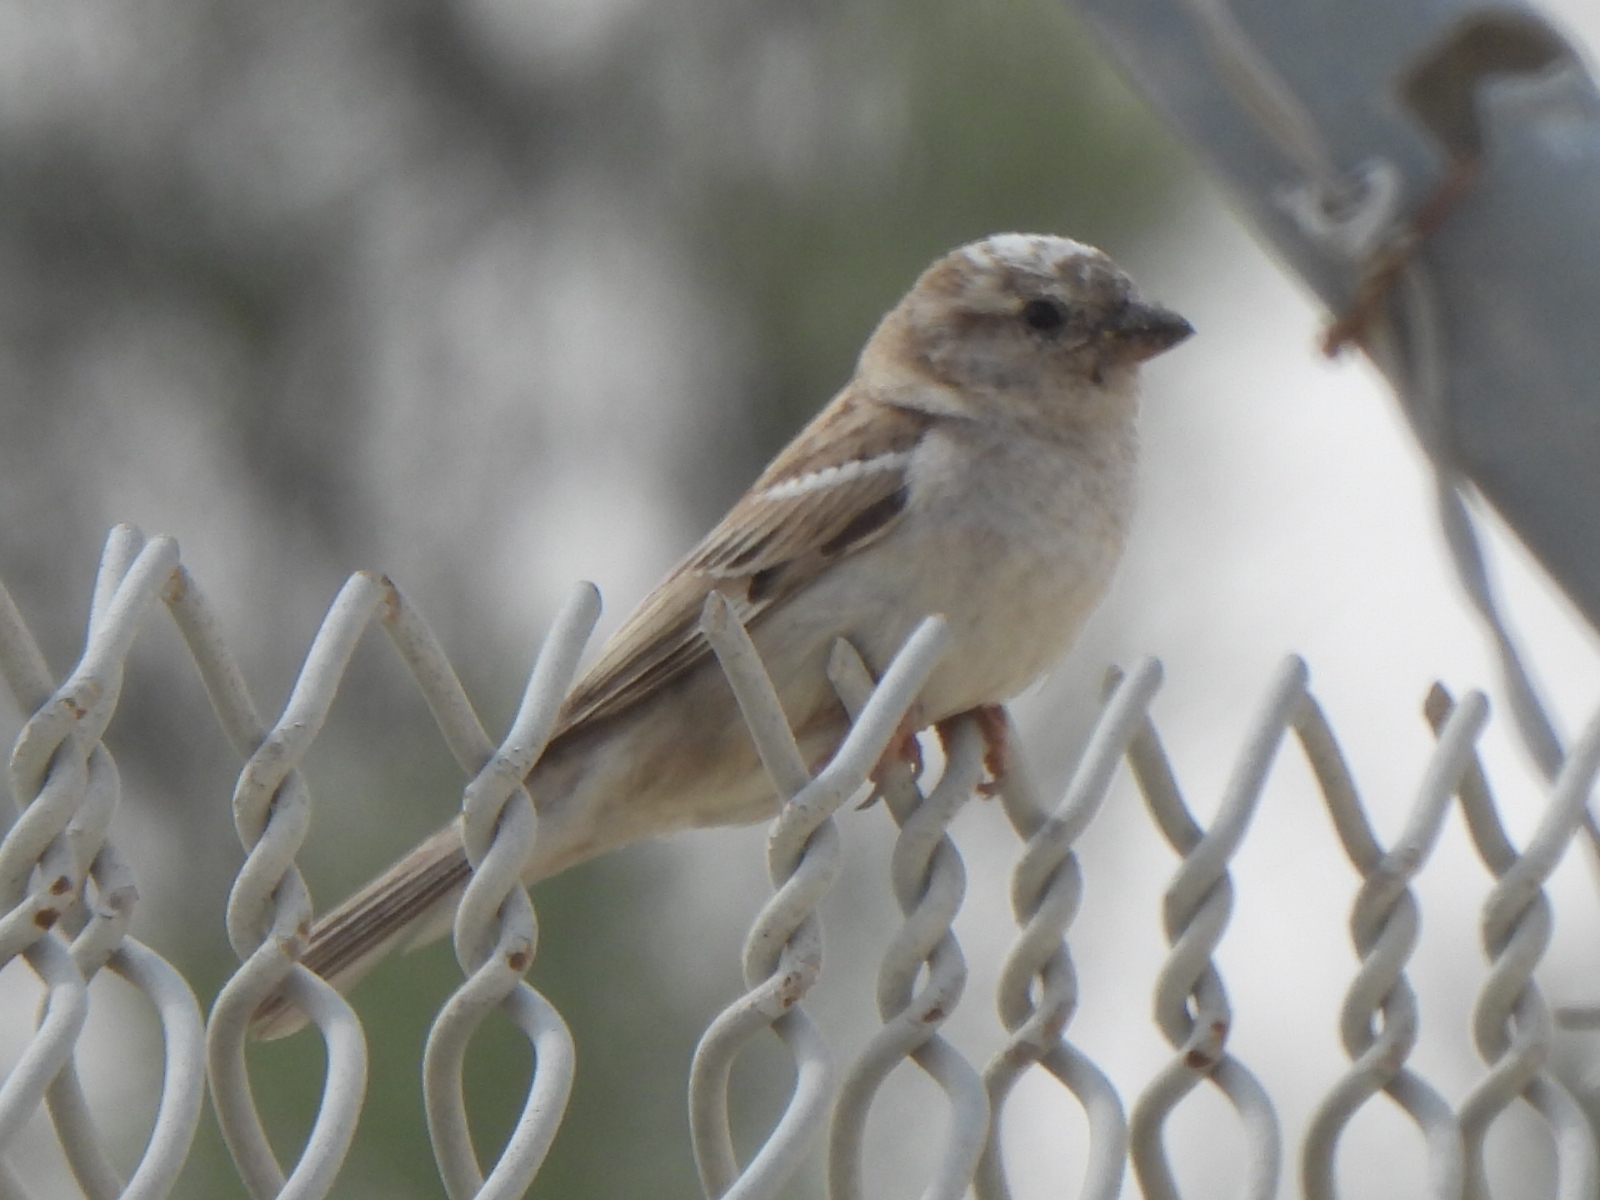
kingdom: Animalia
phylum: Chordata
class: Aves
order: Passeriformes
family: Passeridae
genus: Passer
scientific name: Passer domesticus
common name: House sparrow
